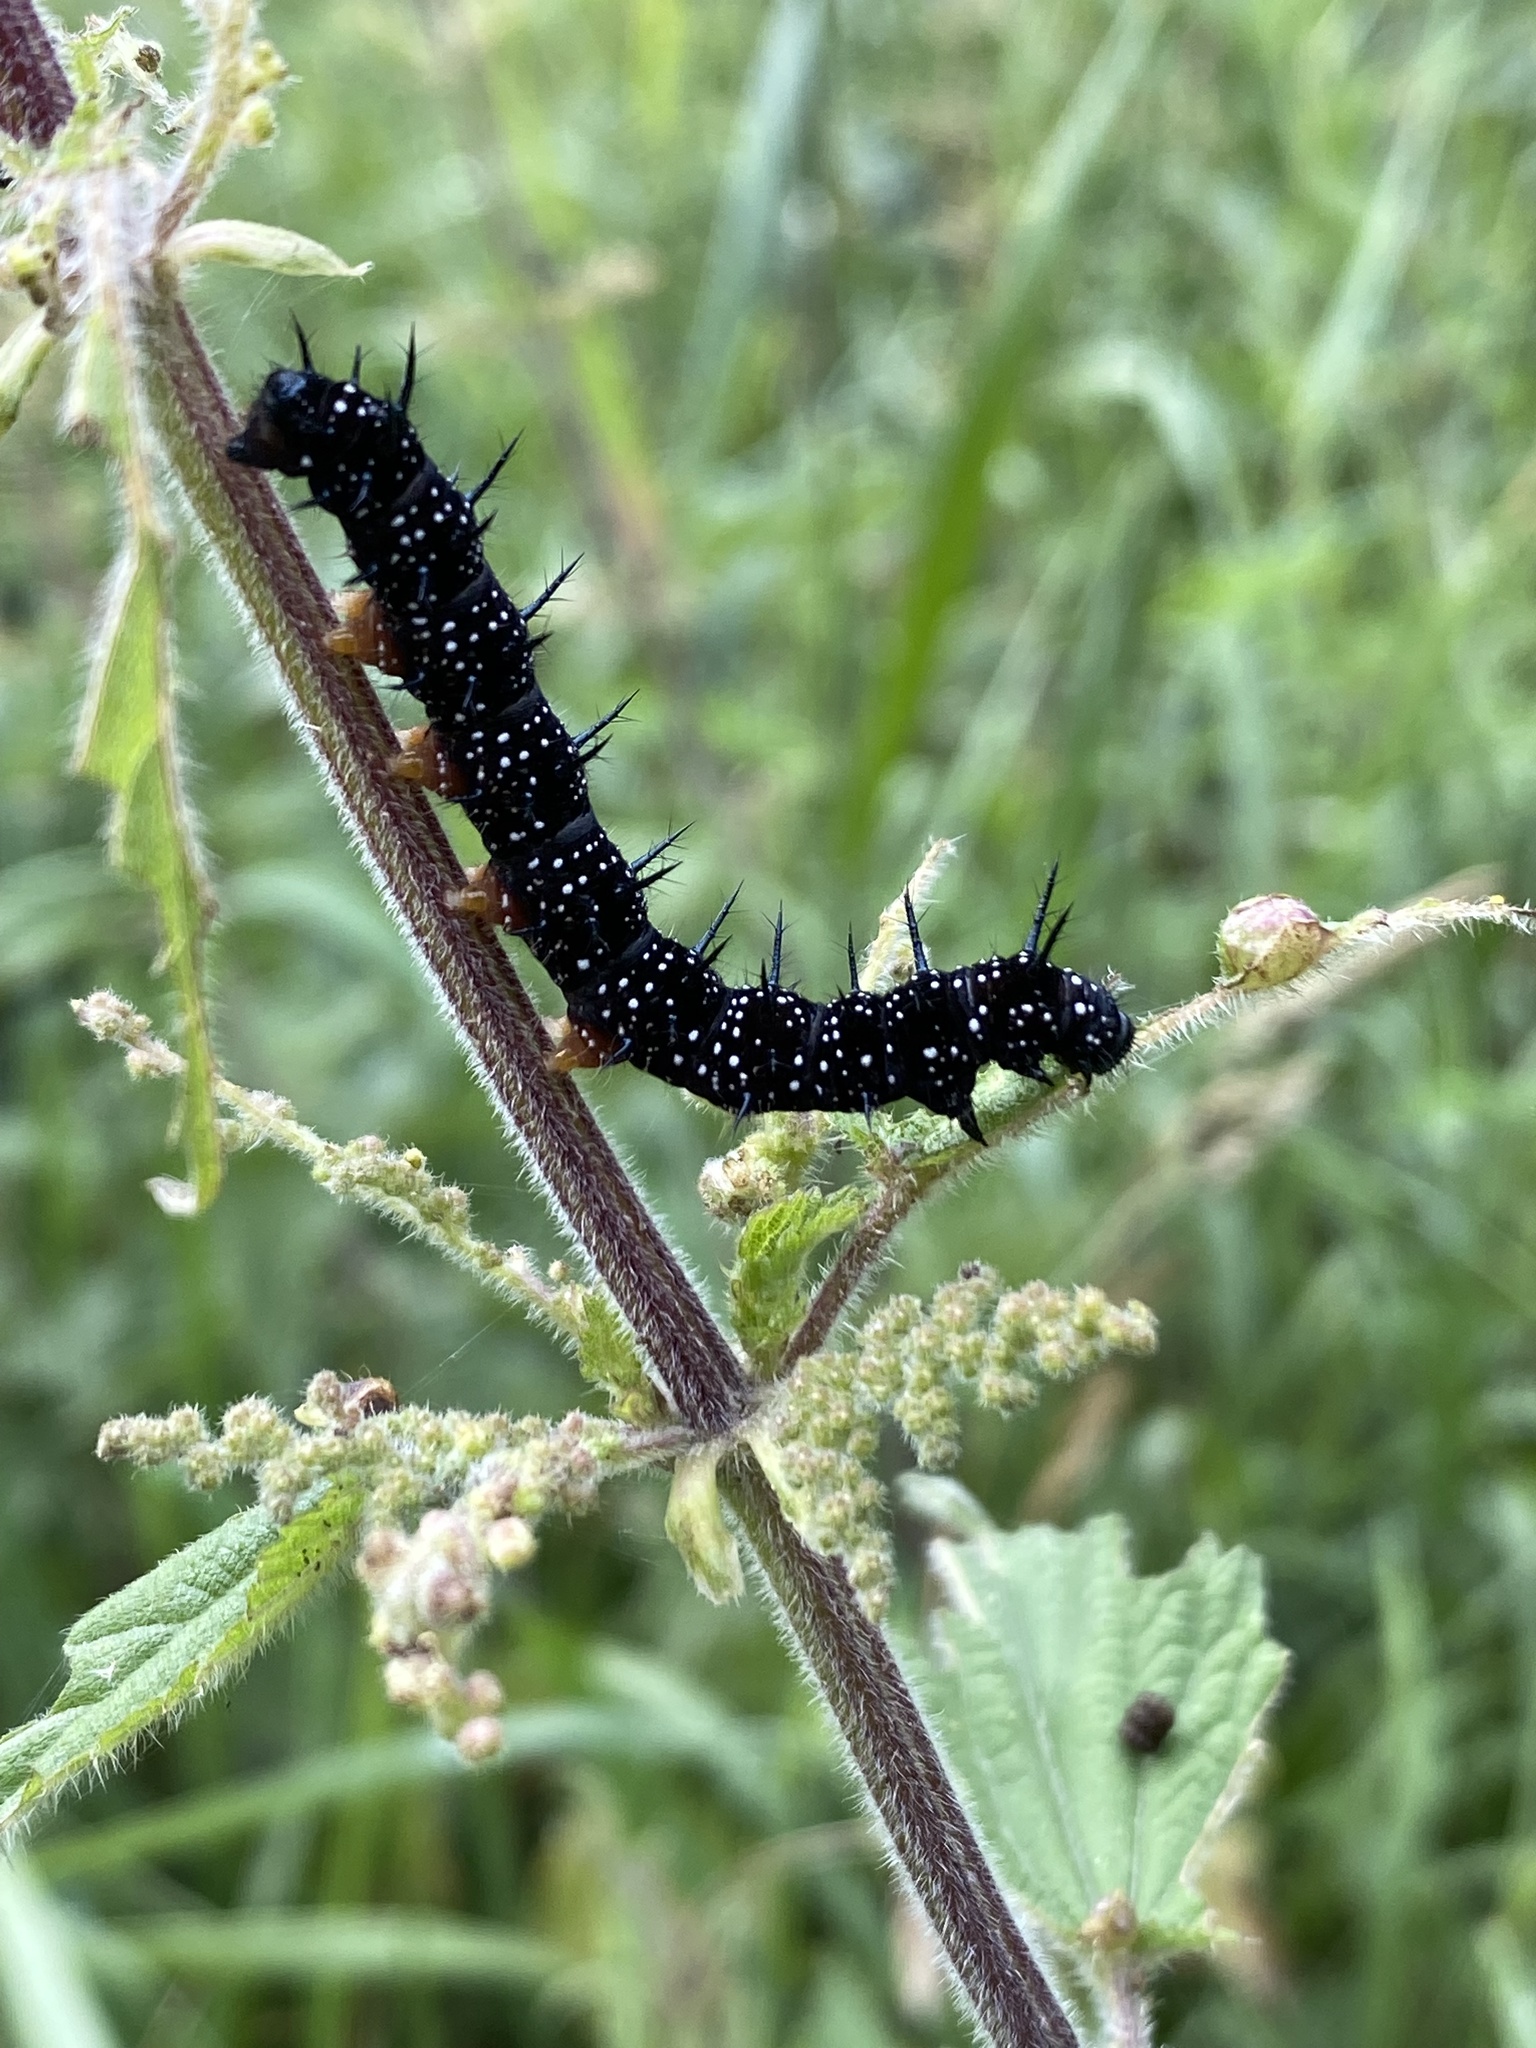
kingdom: Animalia
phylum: Arthropoda
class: Insecta
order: Lepidoptera
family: Nymphalidae
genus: Aglais
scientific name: Aglais io
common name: Peacock
